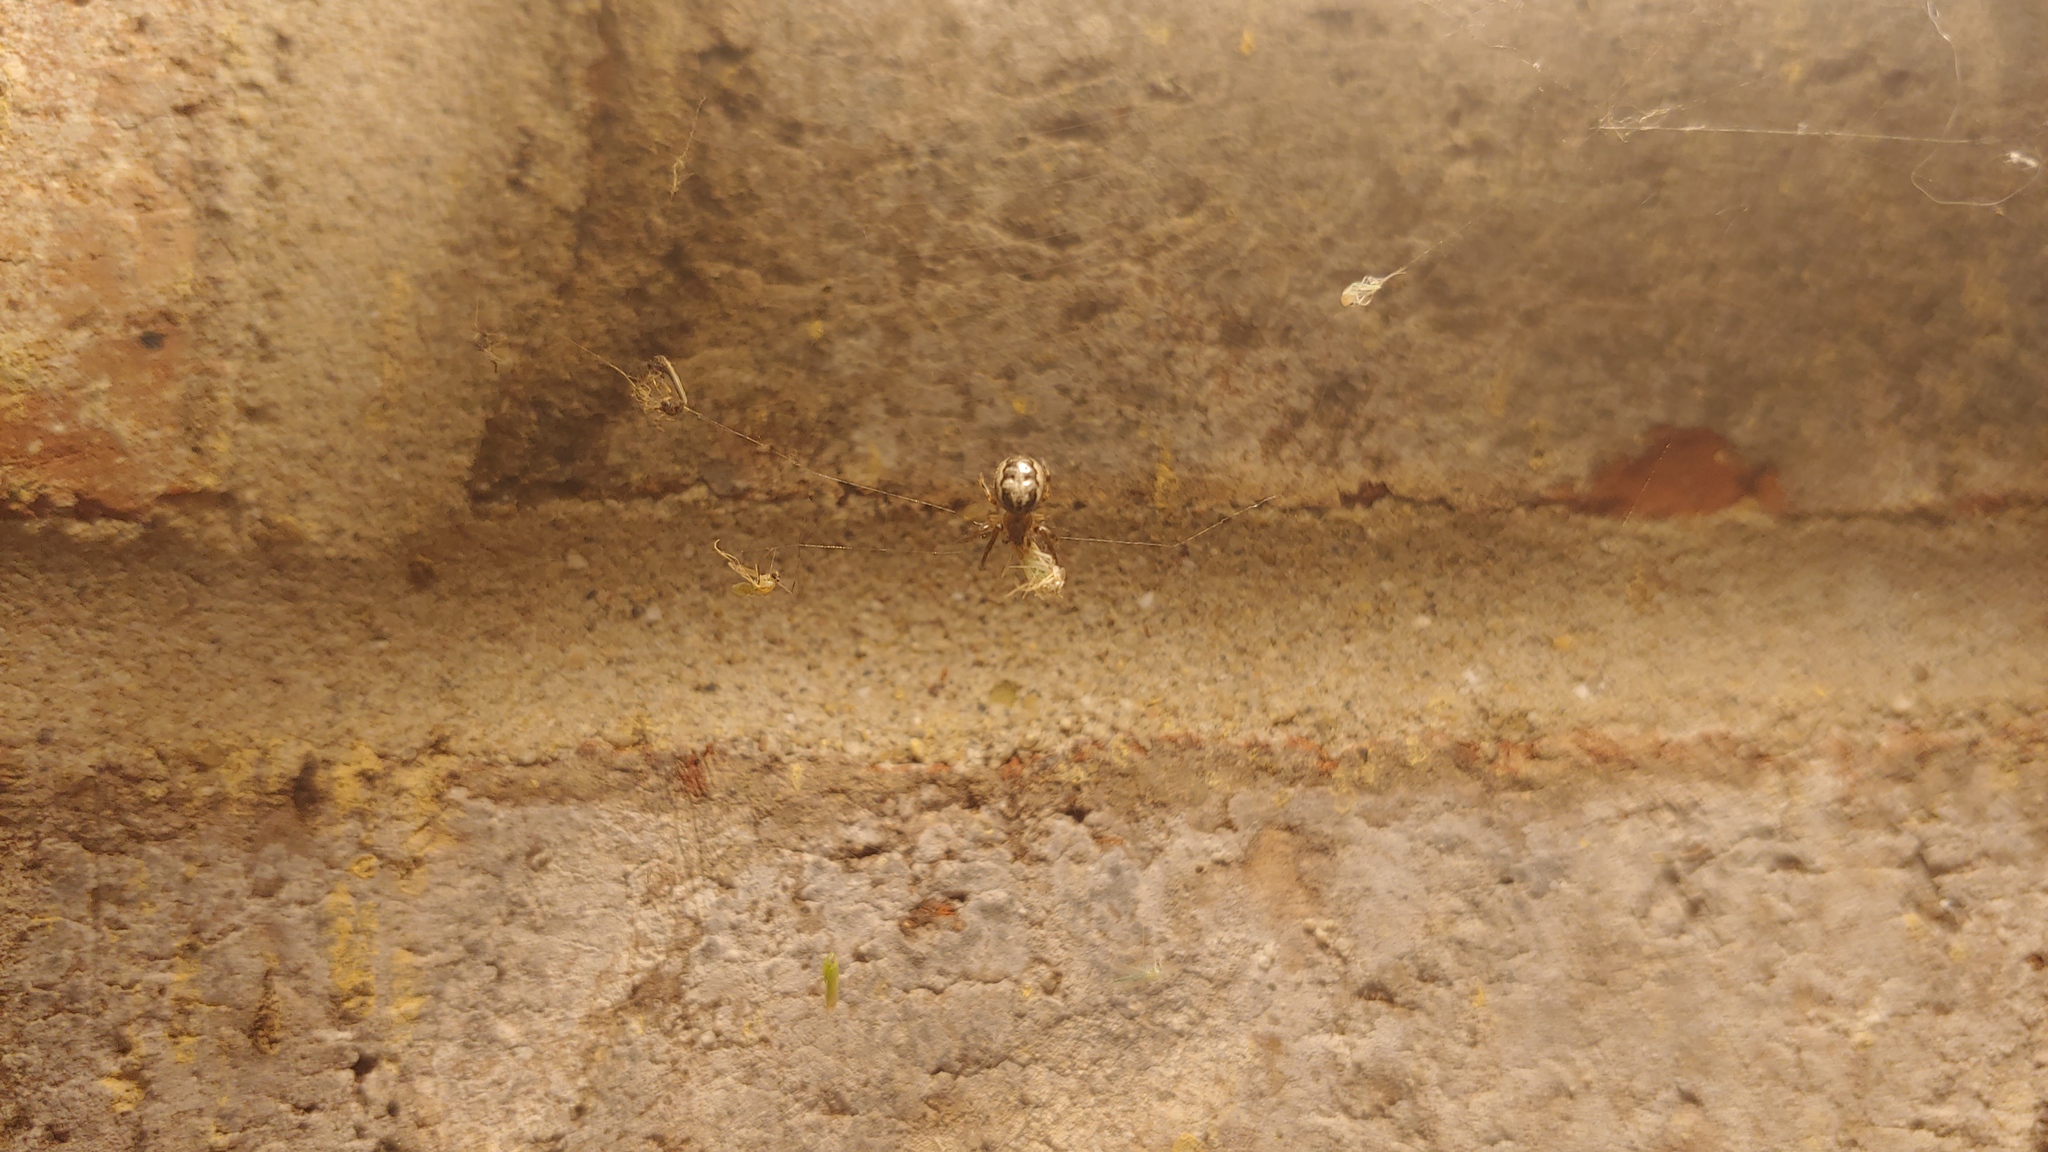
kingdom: Animalia
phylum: Arthropoda
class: Arachnida
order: Araneae
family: Araneidae
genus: Larinioides
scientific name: Larinioides cornutus
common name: Furrow orbweaver
